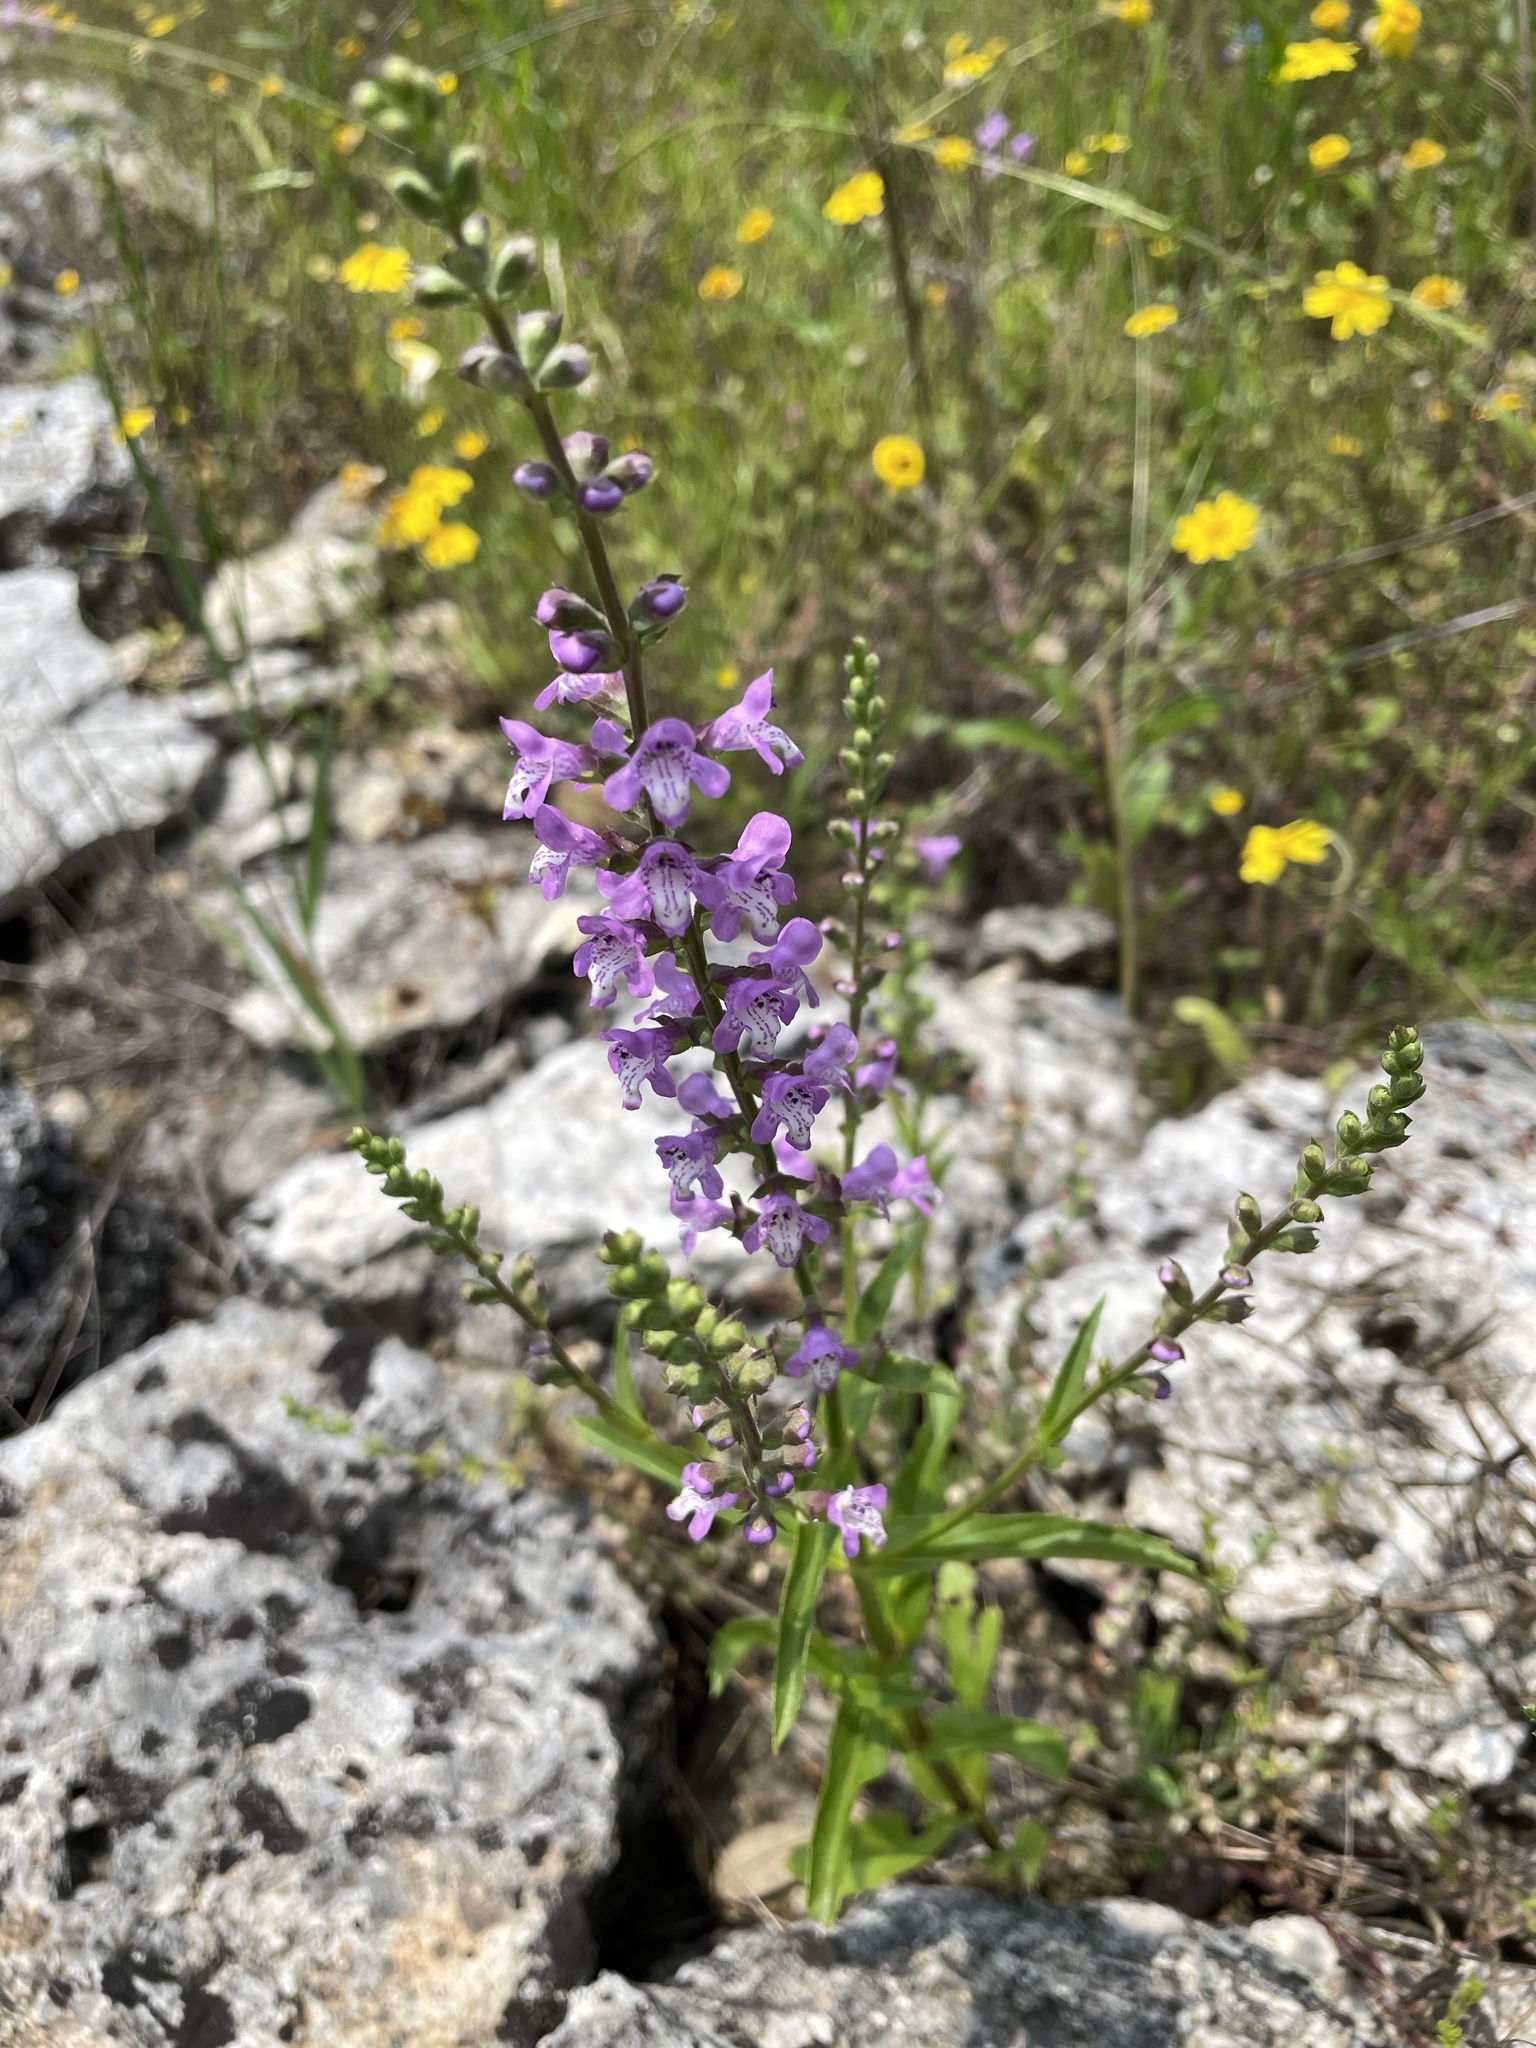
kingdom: Plantae
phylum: Tracheophyta
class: Magnoliopsida
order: Lamiales
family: Lamiaceae
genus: Warnockia
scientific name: Warnockia scutellarioides
